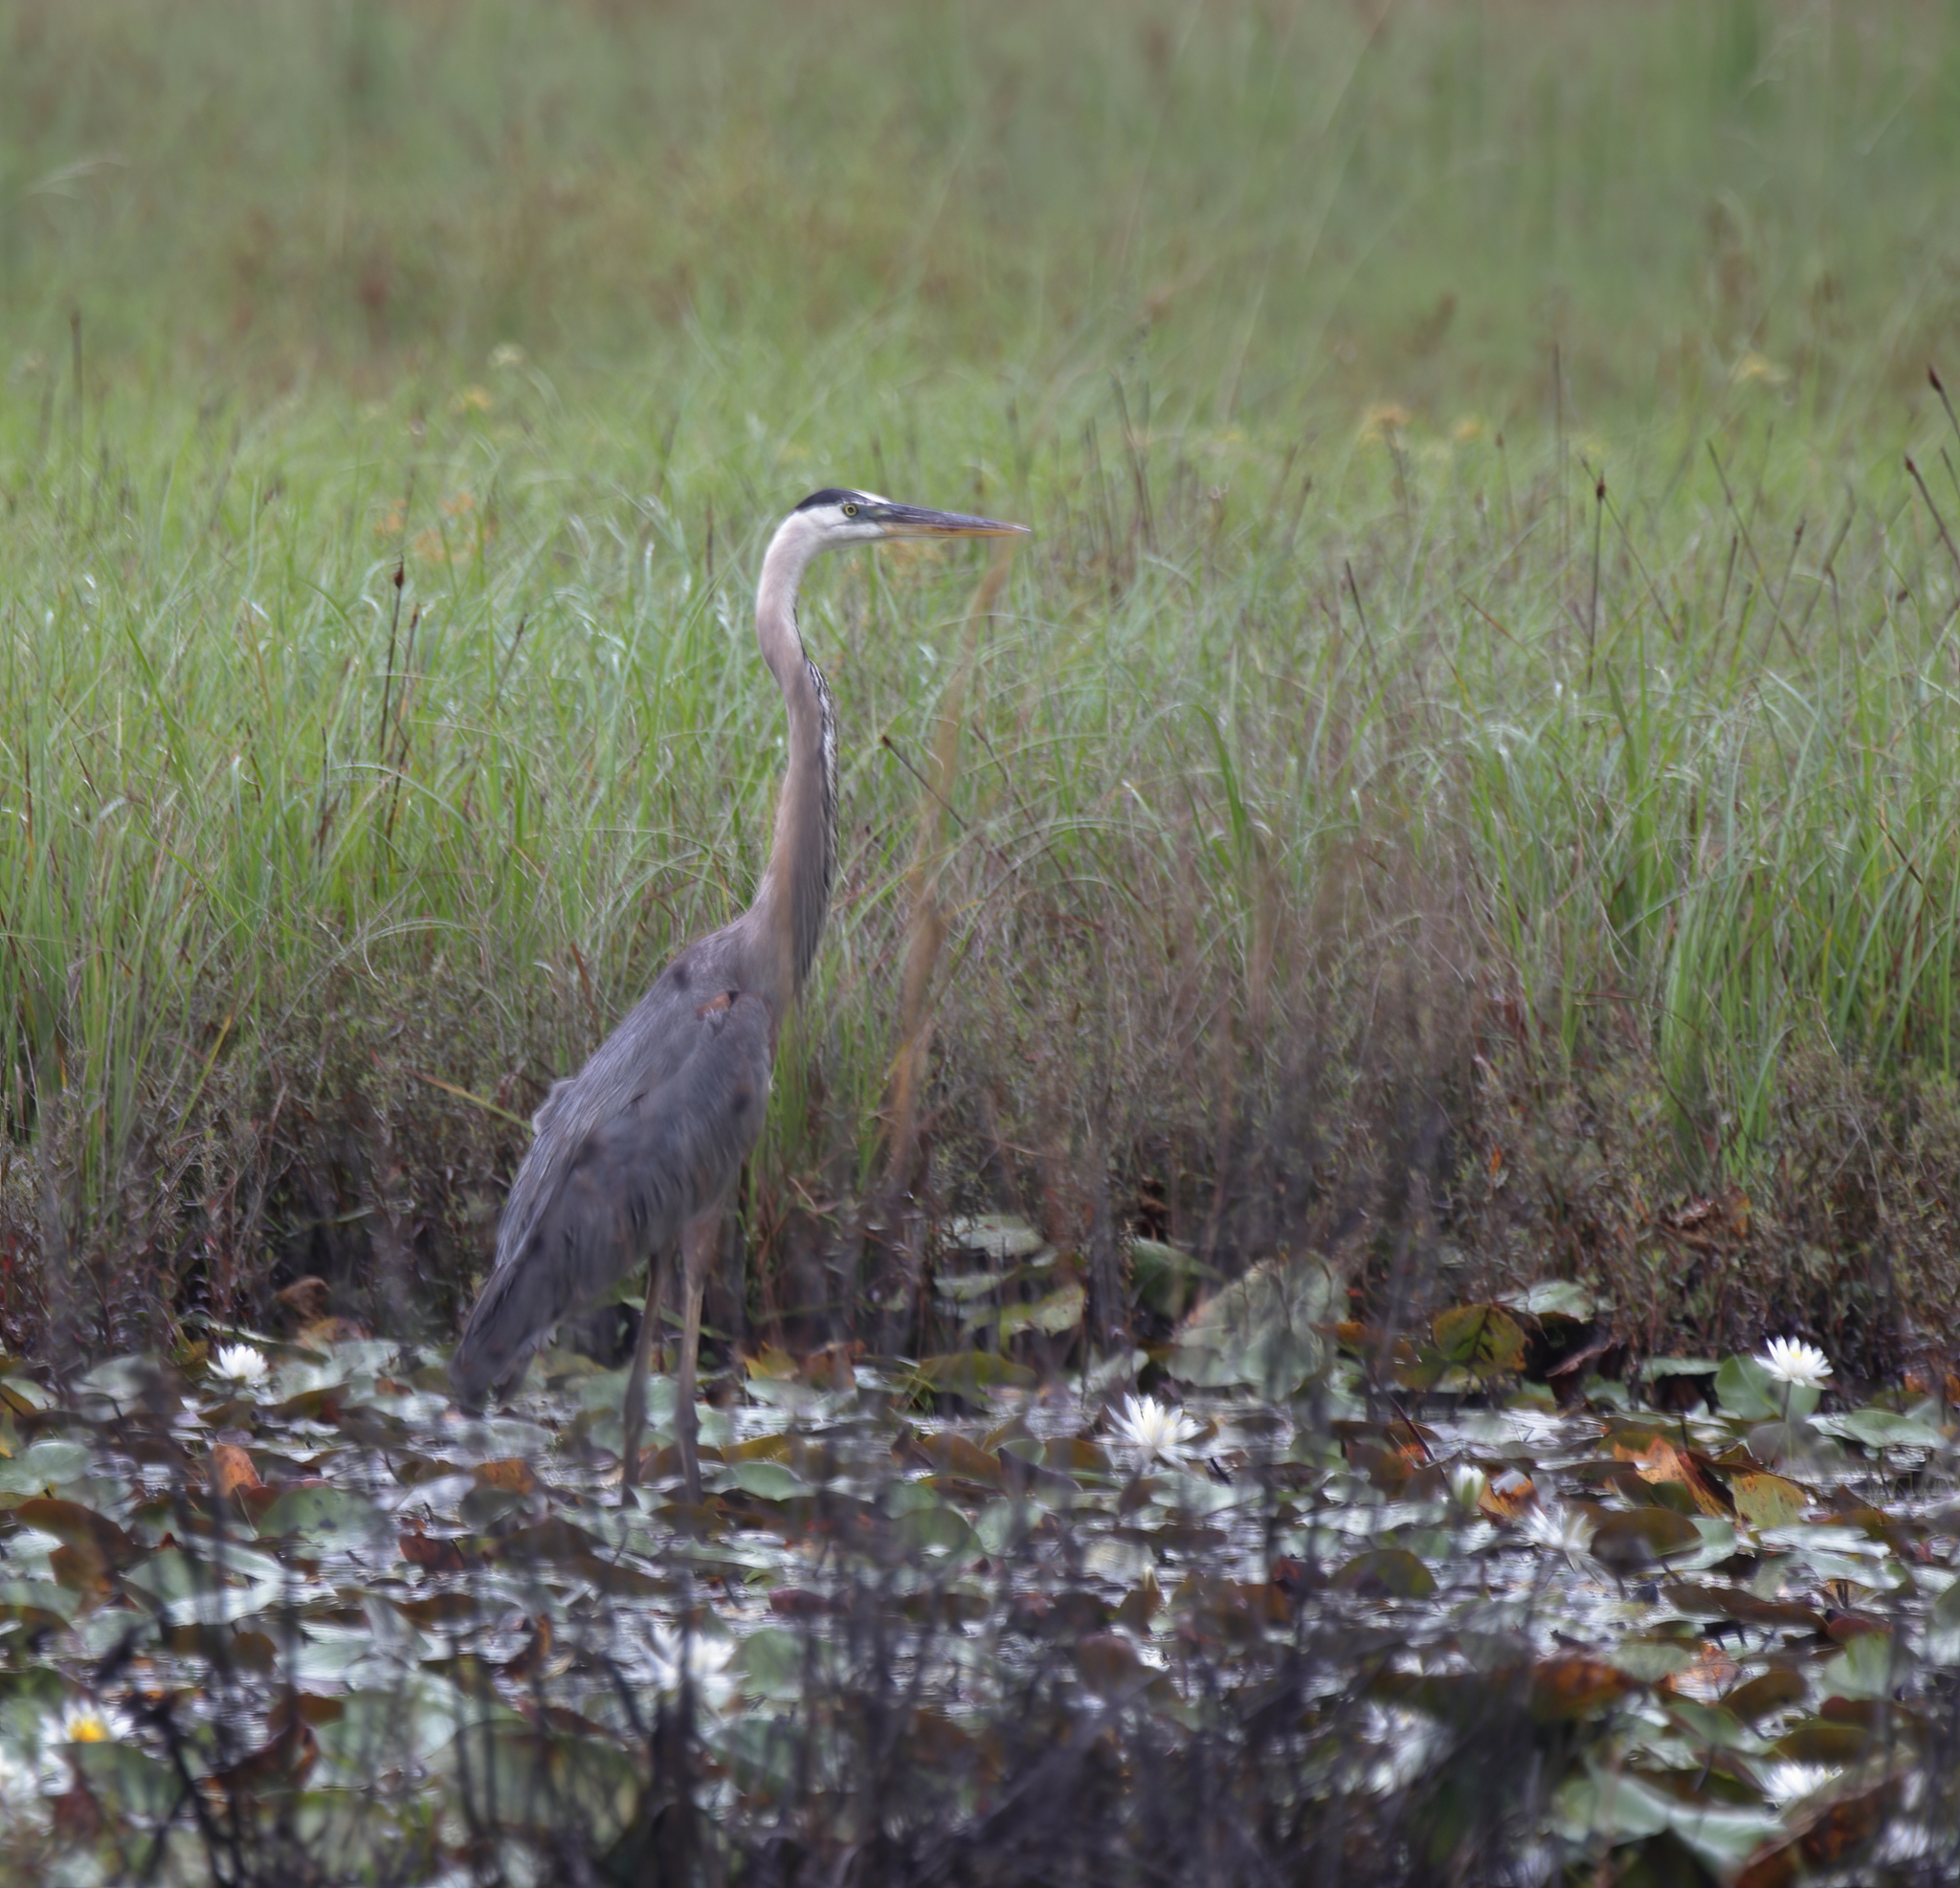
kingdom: Animalia
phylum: Chordata
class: Aves
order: Pelecaniformes
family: Ardeidae
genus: Ardea
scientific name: Ardea herodias
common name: Great blue heron
